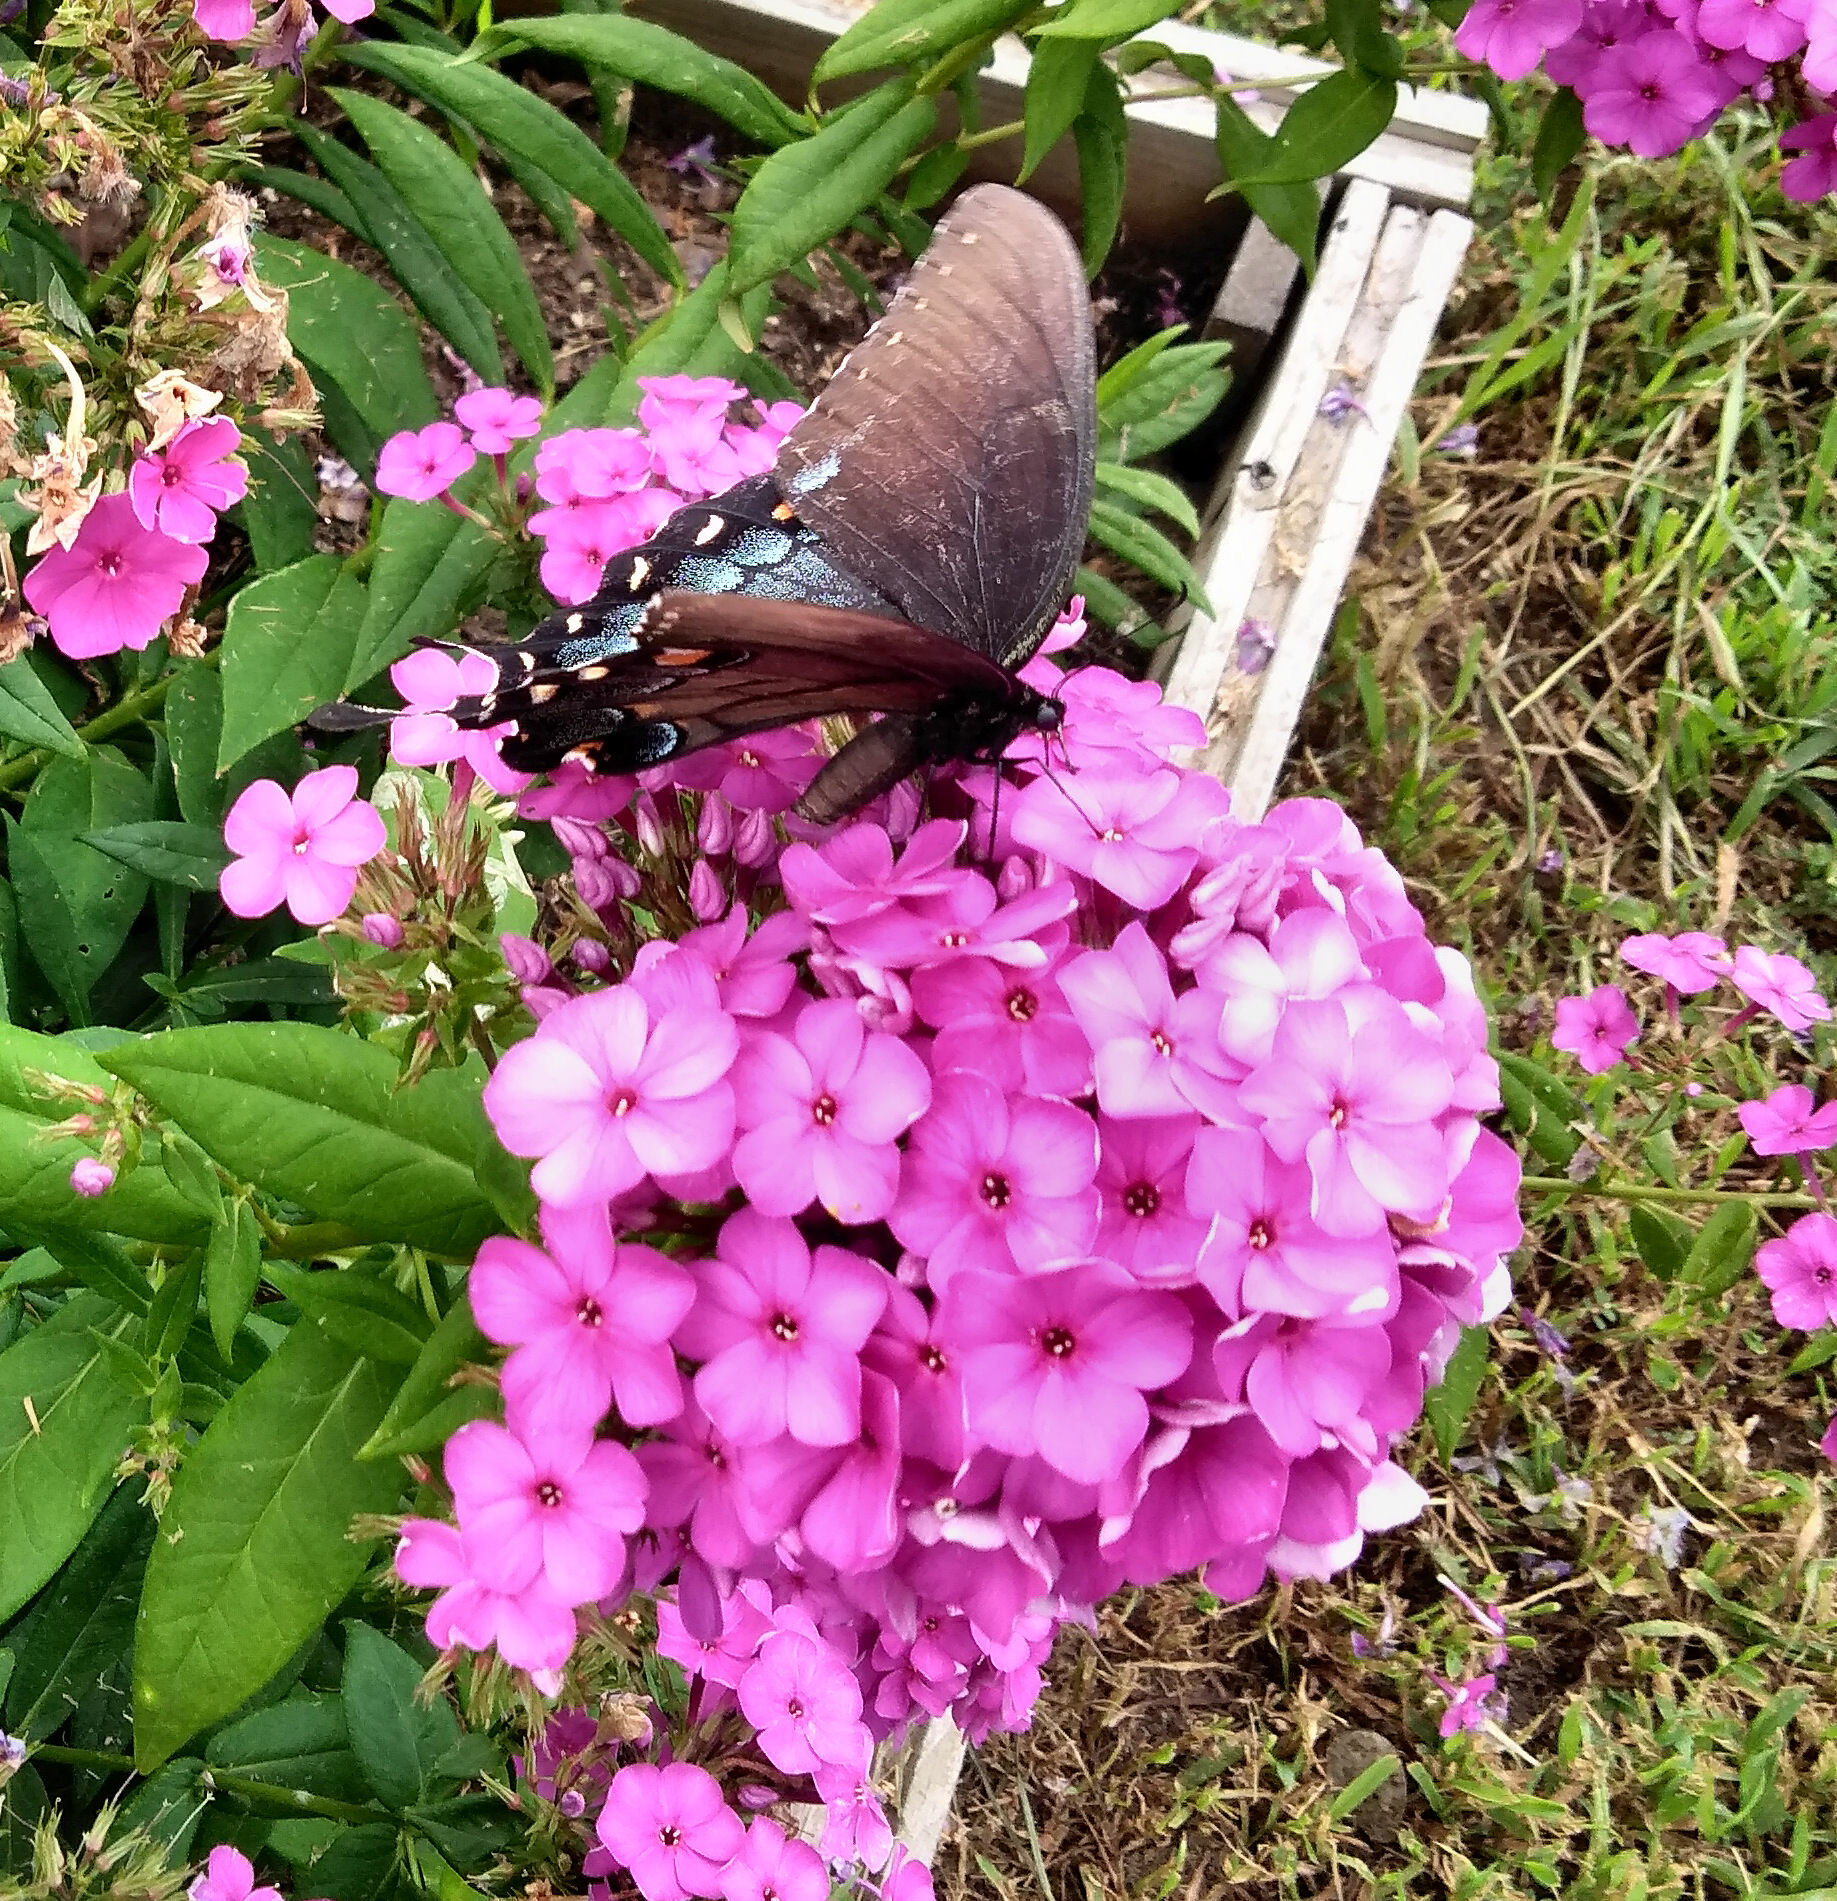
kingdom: Animalia
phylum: Arthropoda
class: Insecta
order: Lepidoptera
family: Papilionidae
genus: Papilio
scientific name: Papilio glaucus
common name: Tiger swallowtail
